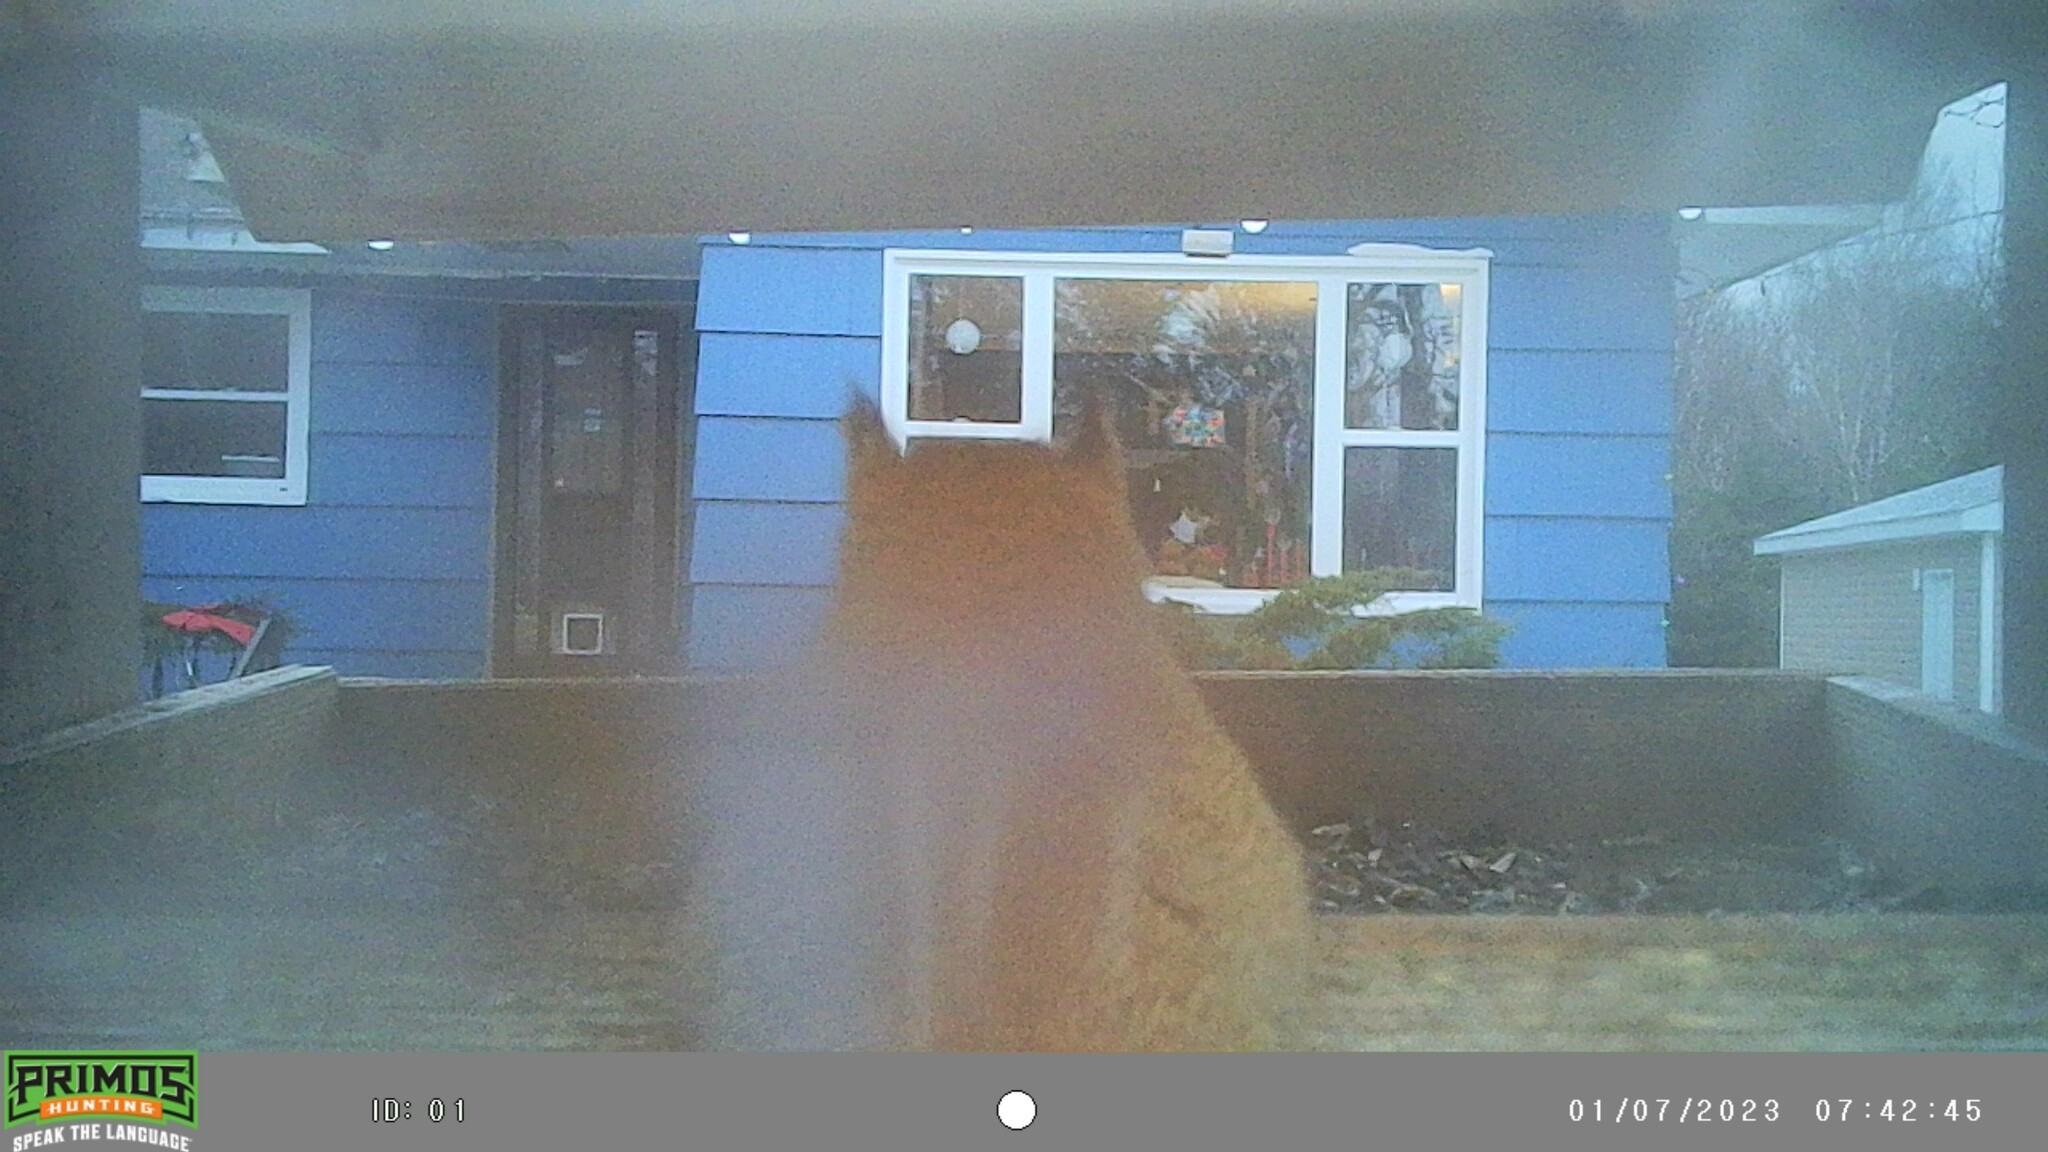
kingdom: Animalia
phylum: Chordata
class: Mammalia
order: Rodentia
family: Sciuridae
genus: Tamiasciurus
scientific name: Tamiasciurus hudsonicus
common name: Red squirrel
